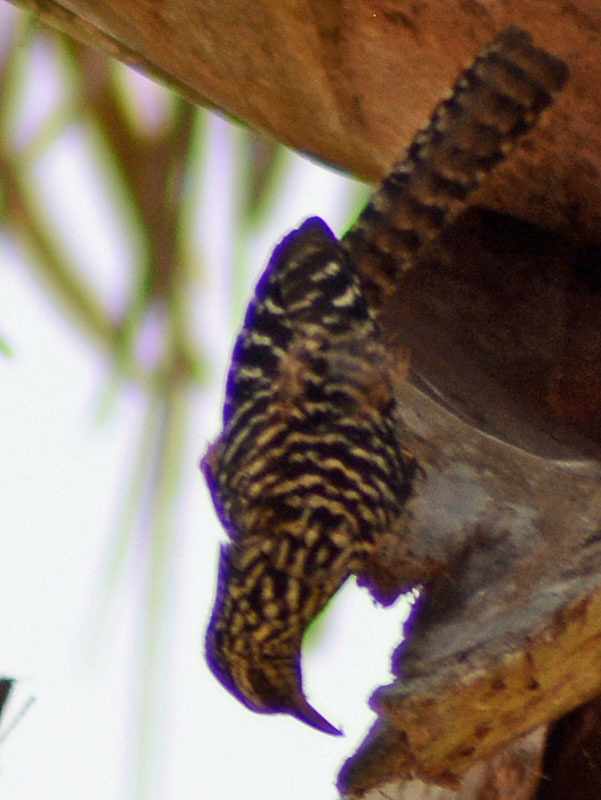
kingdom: Animalia
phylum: Chordata
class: Aves
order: Passeriformes
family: Troglodytidae
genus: Campylorhynchus
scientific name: Campylorhynchus zonatus
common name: Band-backed wren
